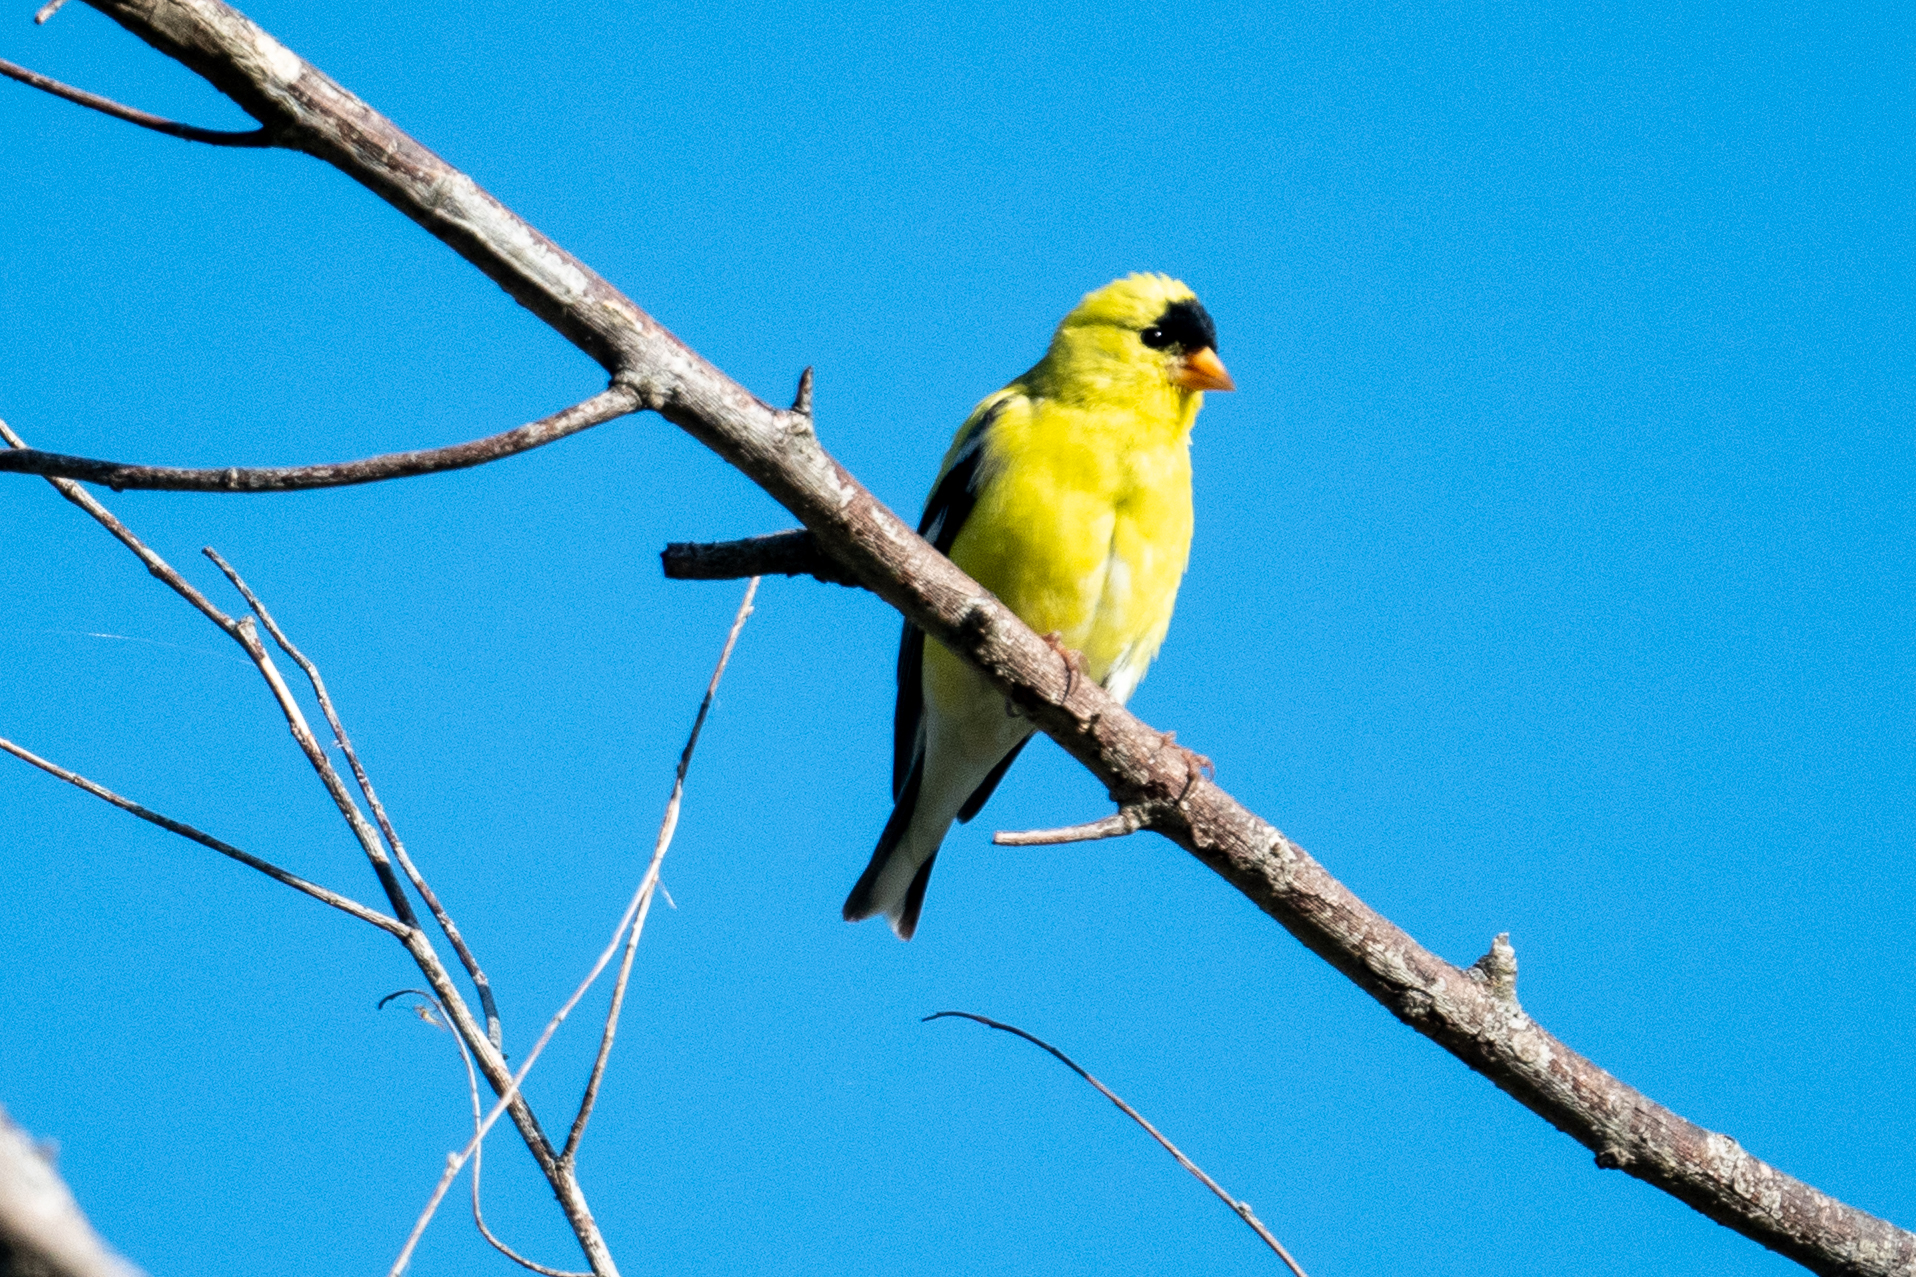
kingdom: Animalia
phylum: Chordata
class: Aves
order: Passeriformes
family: Fringillidae
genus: Spinus
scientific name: Spinus tristis
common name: American goldfinch
